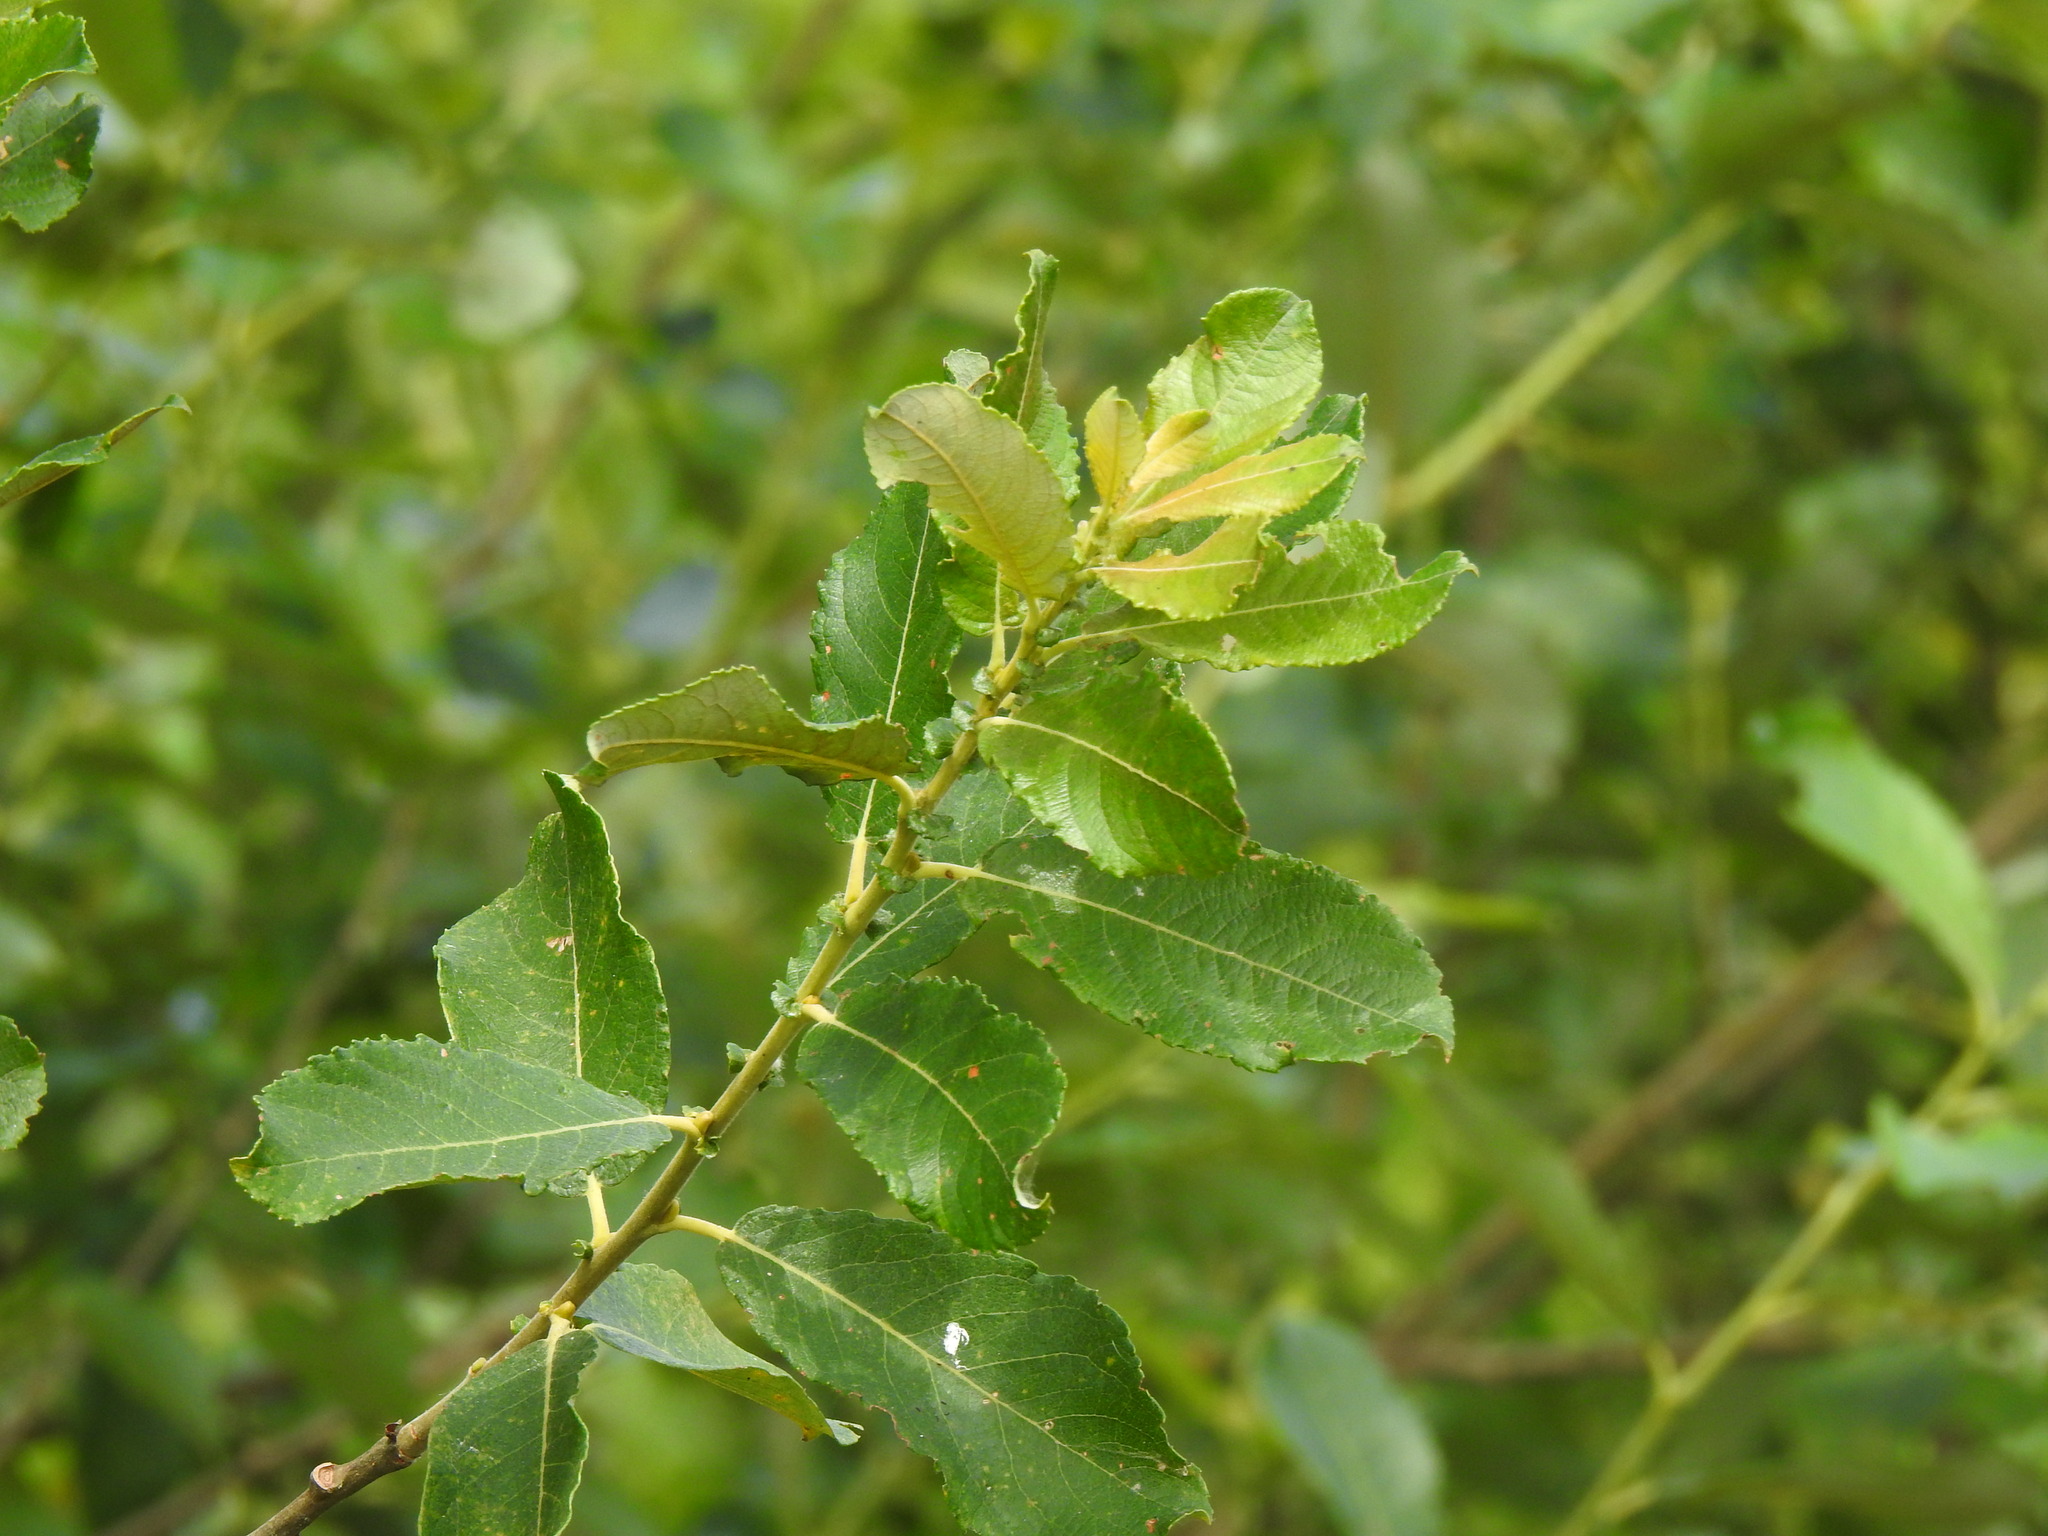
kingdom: Plantae
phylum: Tracheophyta
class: Magnoliopsida
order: Malpighiales
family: Salicaceae
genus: Salix
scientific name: Salix atrocinerea
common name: Rusty willow
